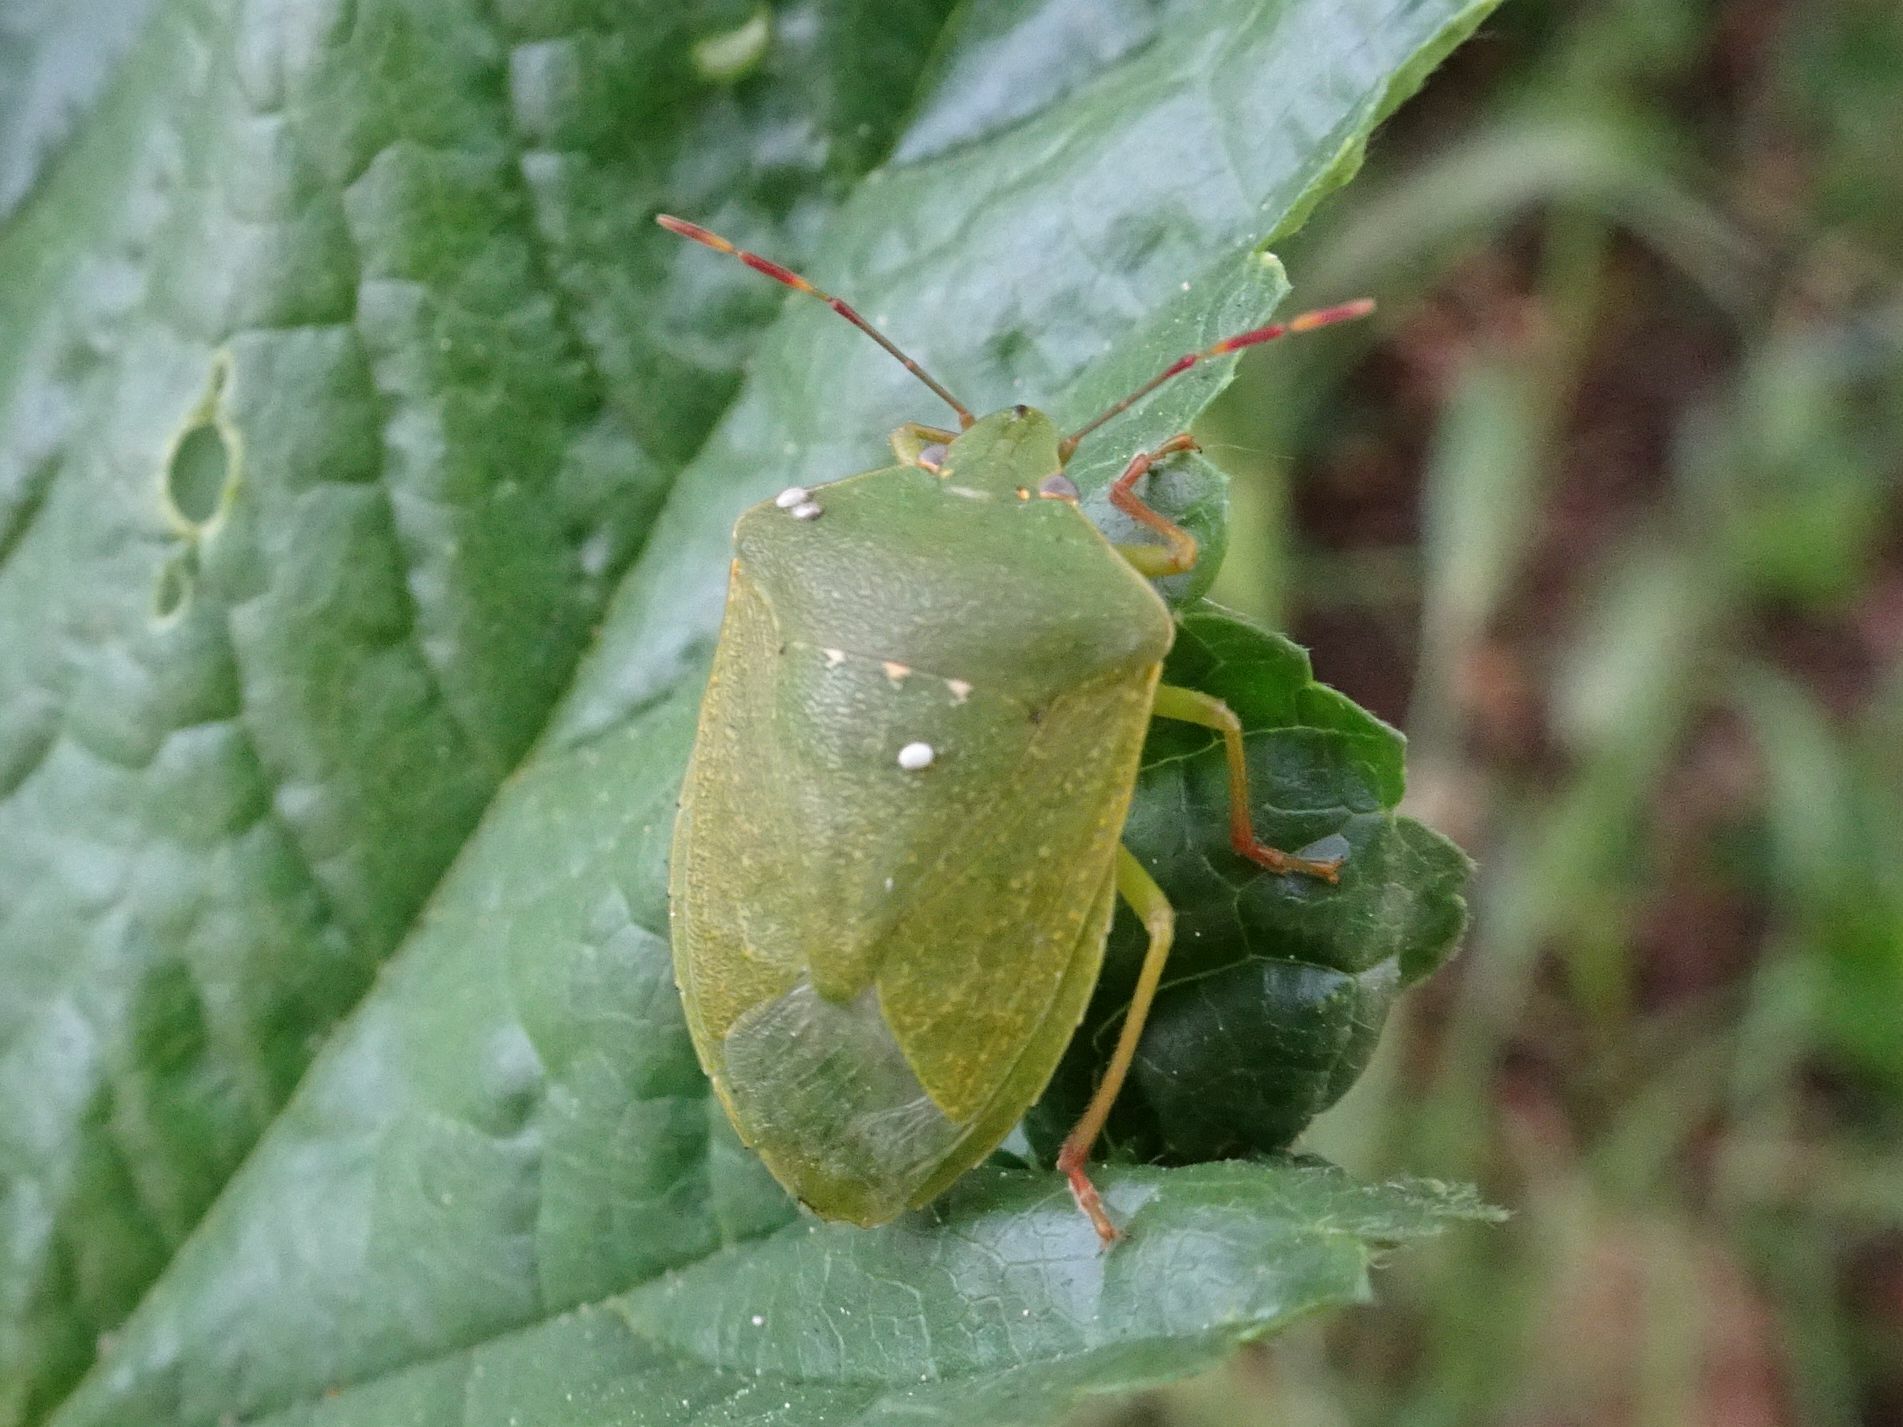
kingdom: Animalia
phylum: Arthropoda
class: Insecta
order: Hemiptera
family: Pentatomidae
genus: Nezara
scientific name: Nezara viridula
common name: Southern green stink bug
